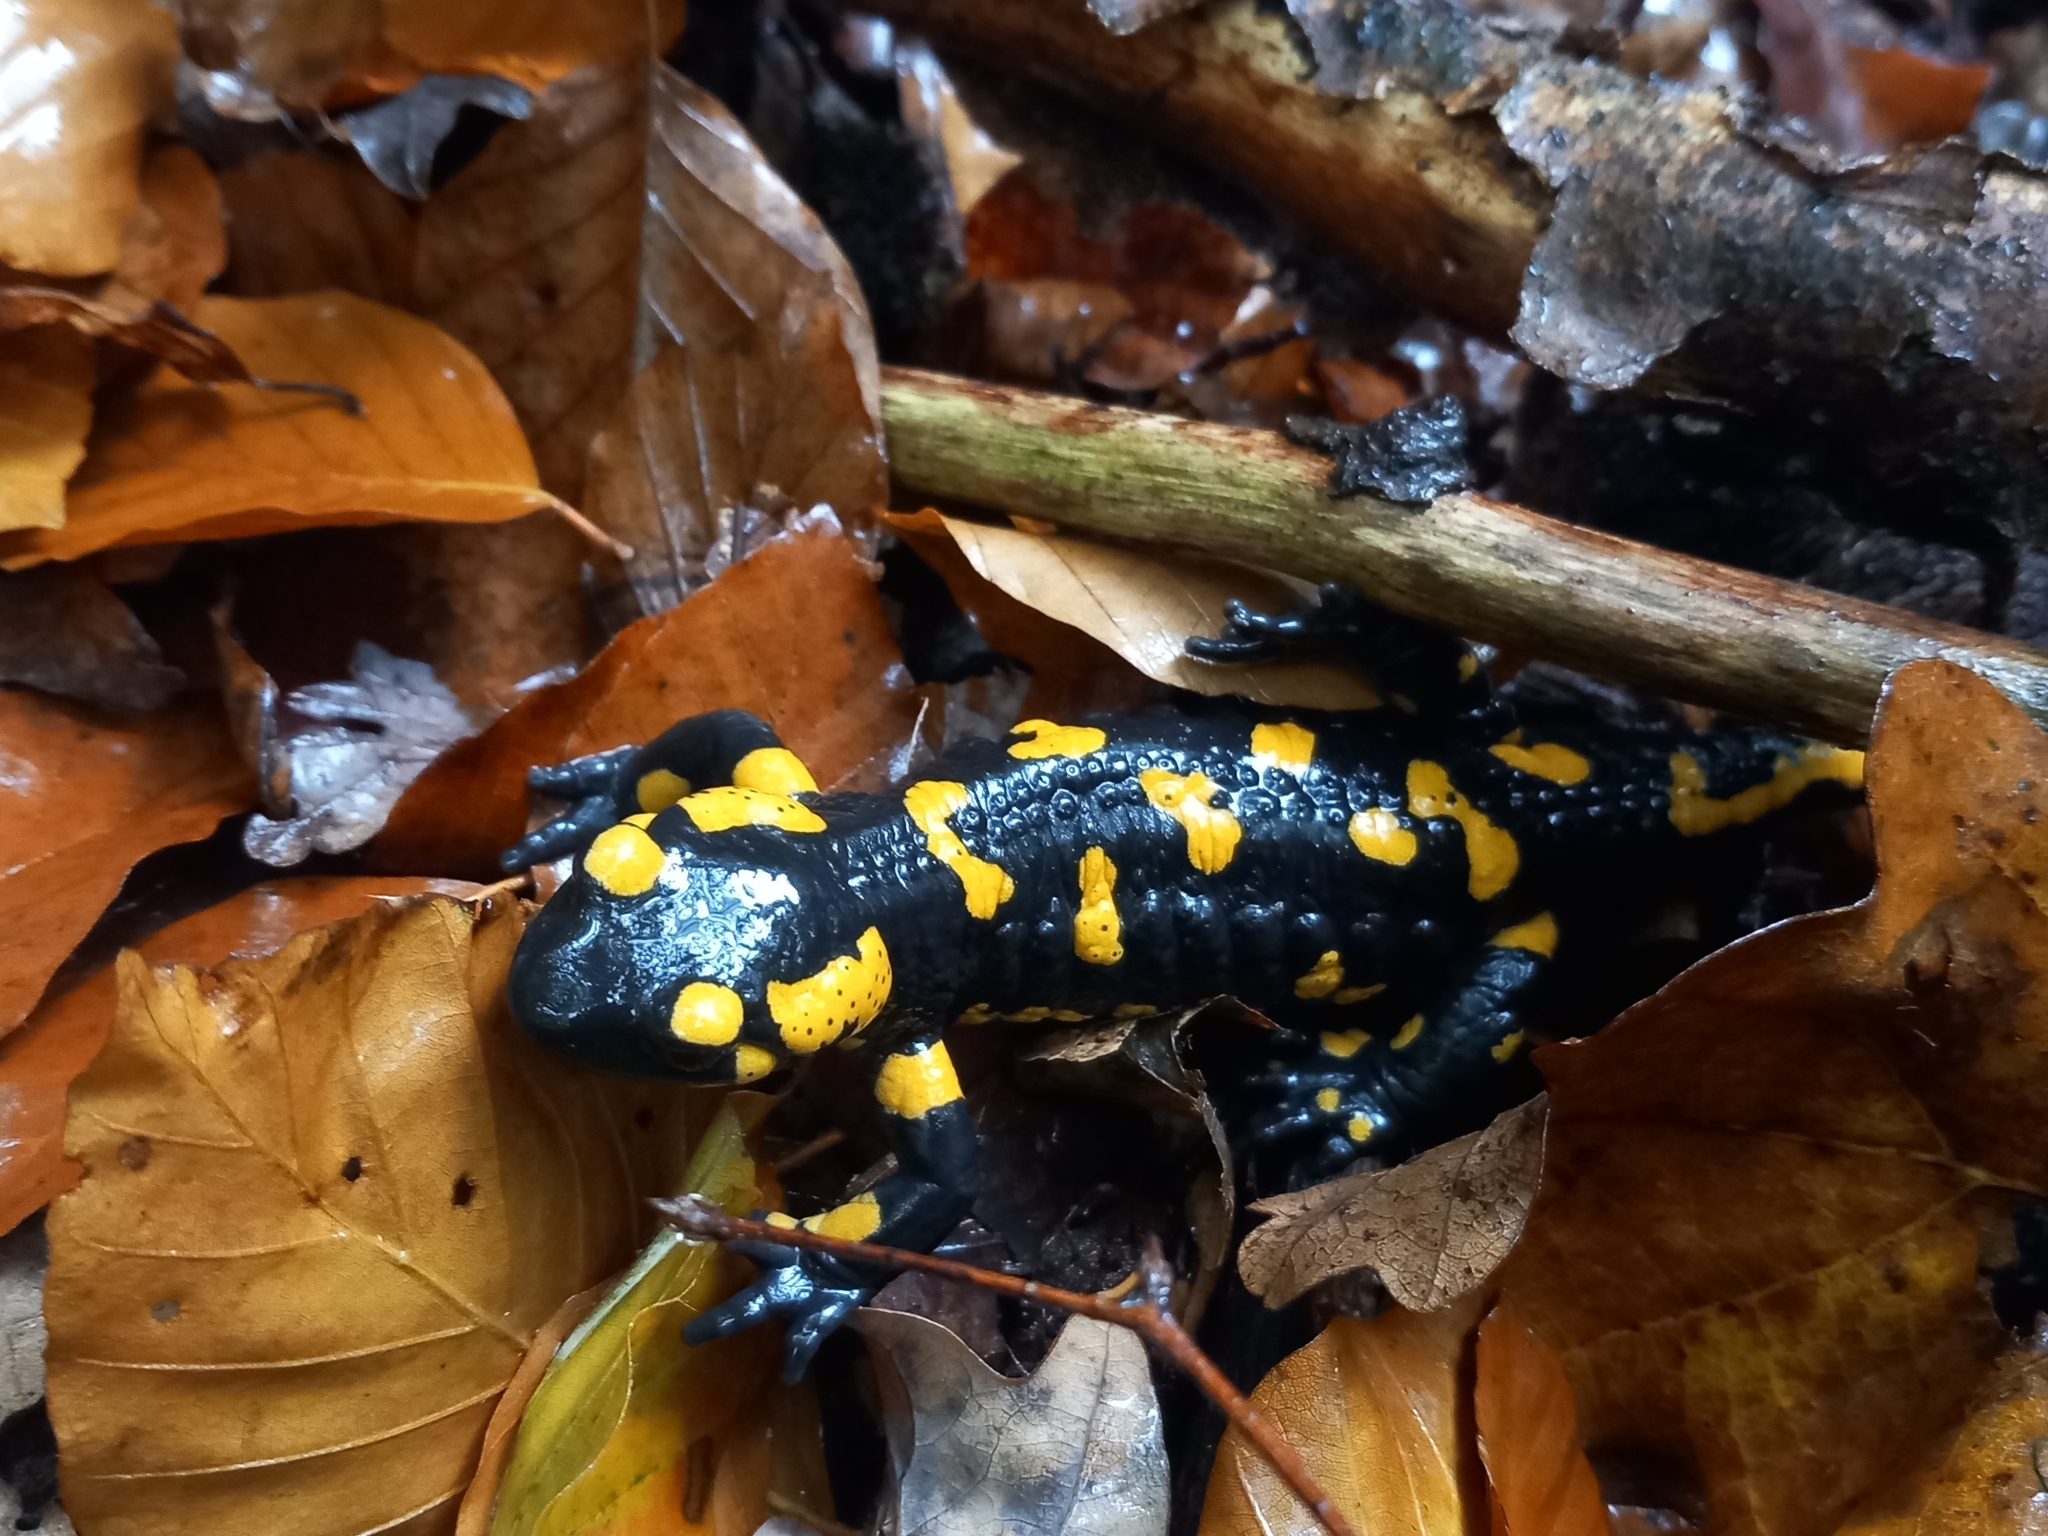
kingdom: Animalia
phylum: Chordata
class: Amphibia
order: Caudata
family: Salamandridae
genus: Salamandra
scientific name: Salamandra salamandra
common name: Fire salamander
